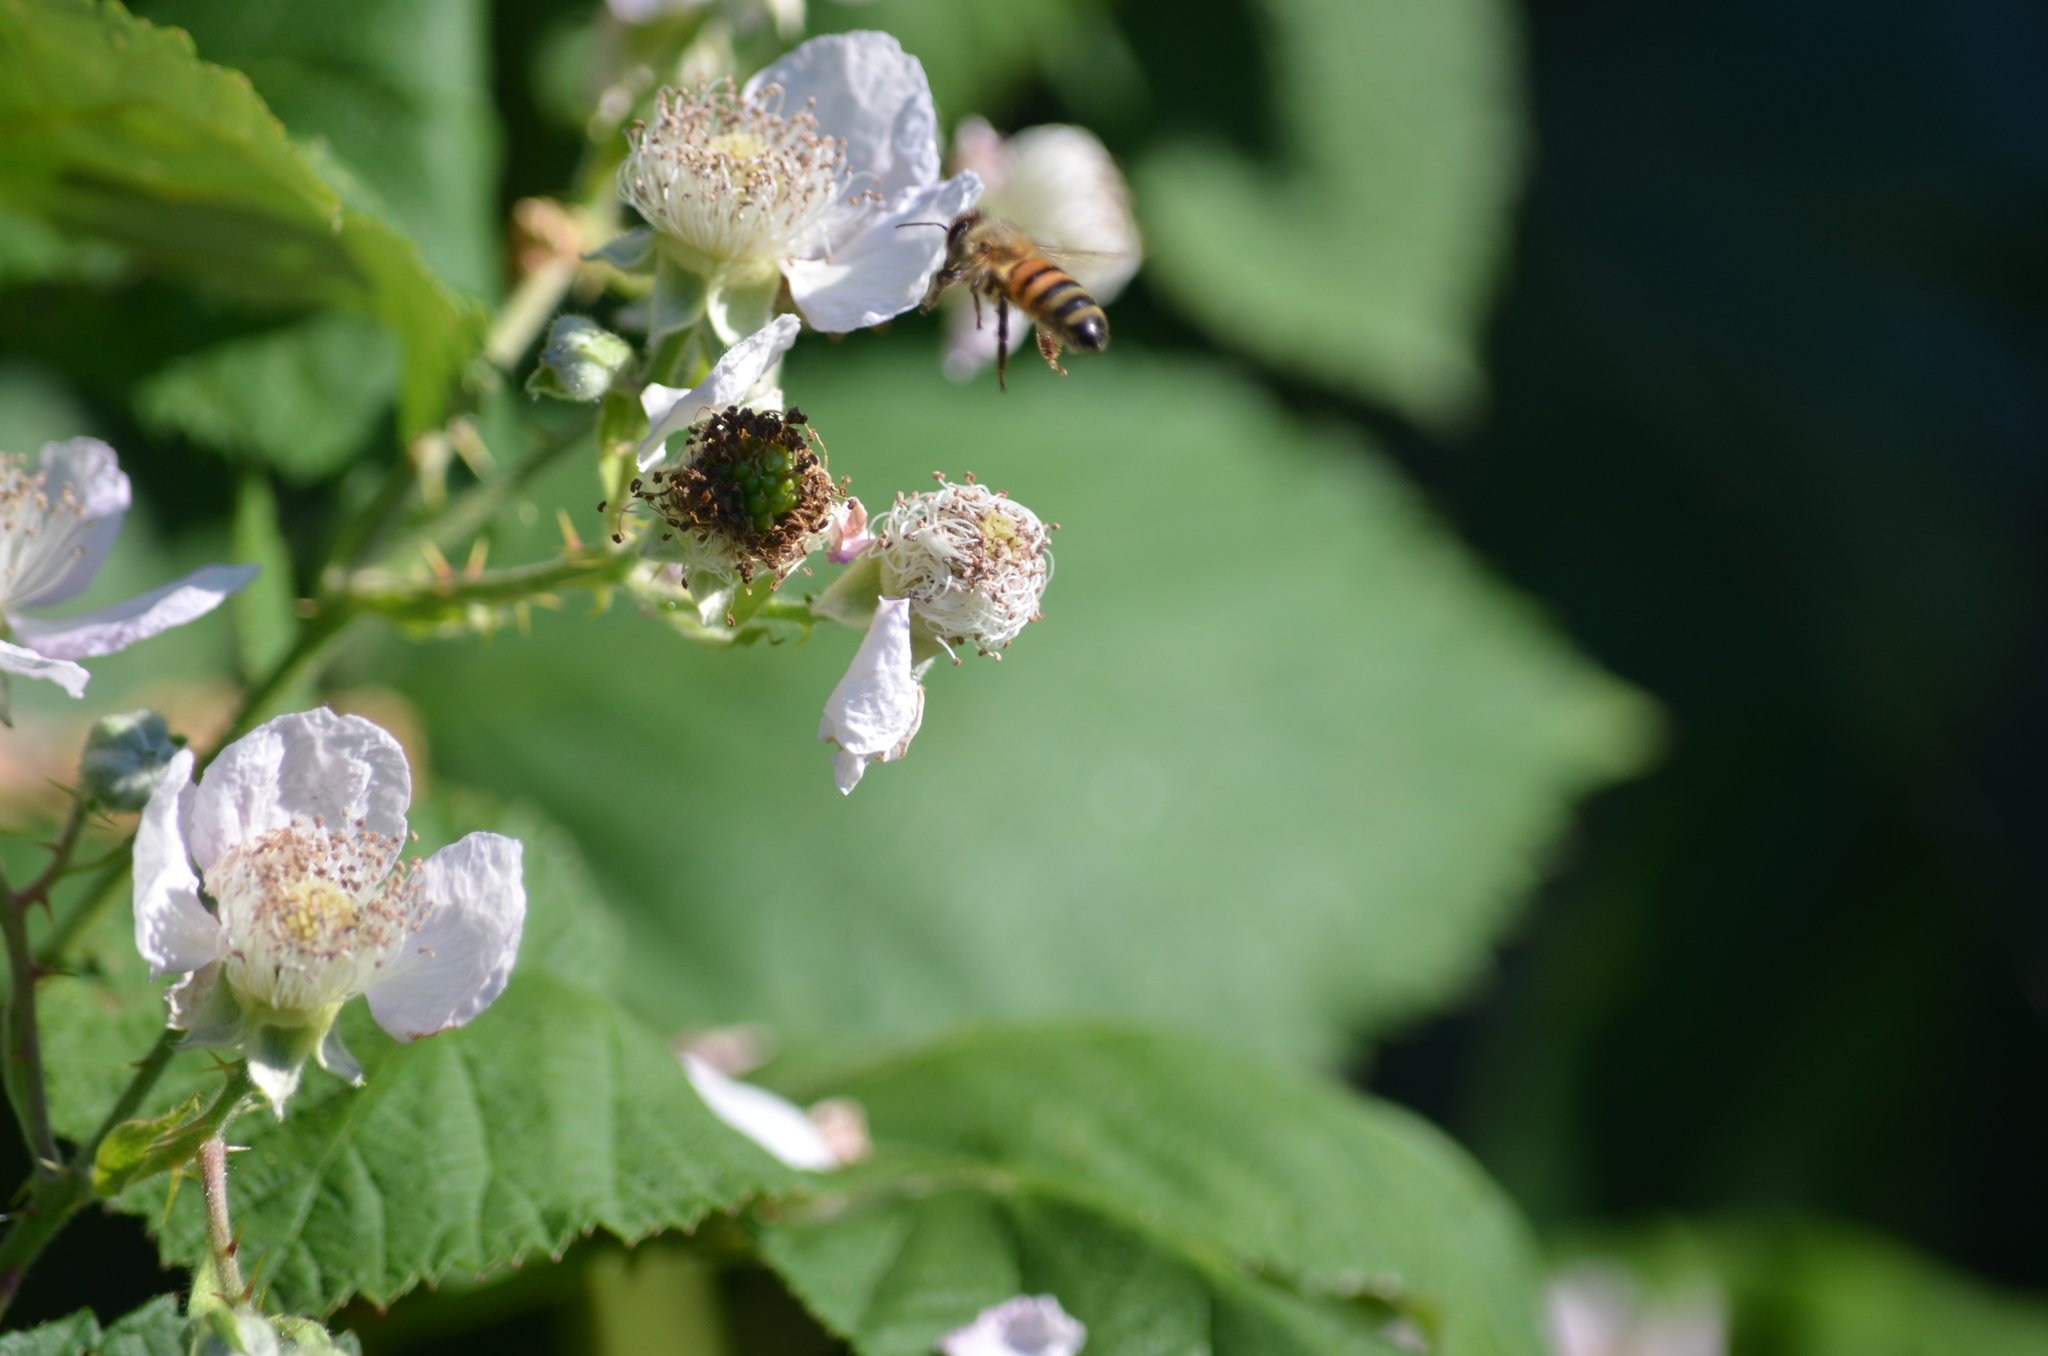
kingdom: Animalia
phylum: Arthropoda
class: Insecta
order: Hymenoptera
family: Apidae
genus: Apis
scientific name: Apis mellifera
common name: Honey bee
